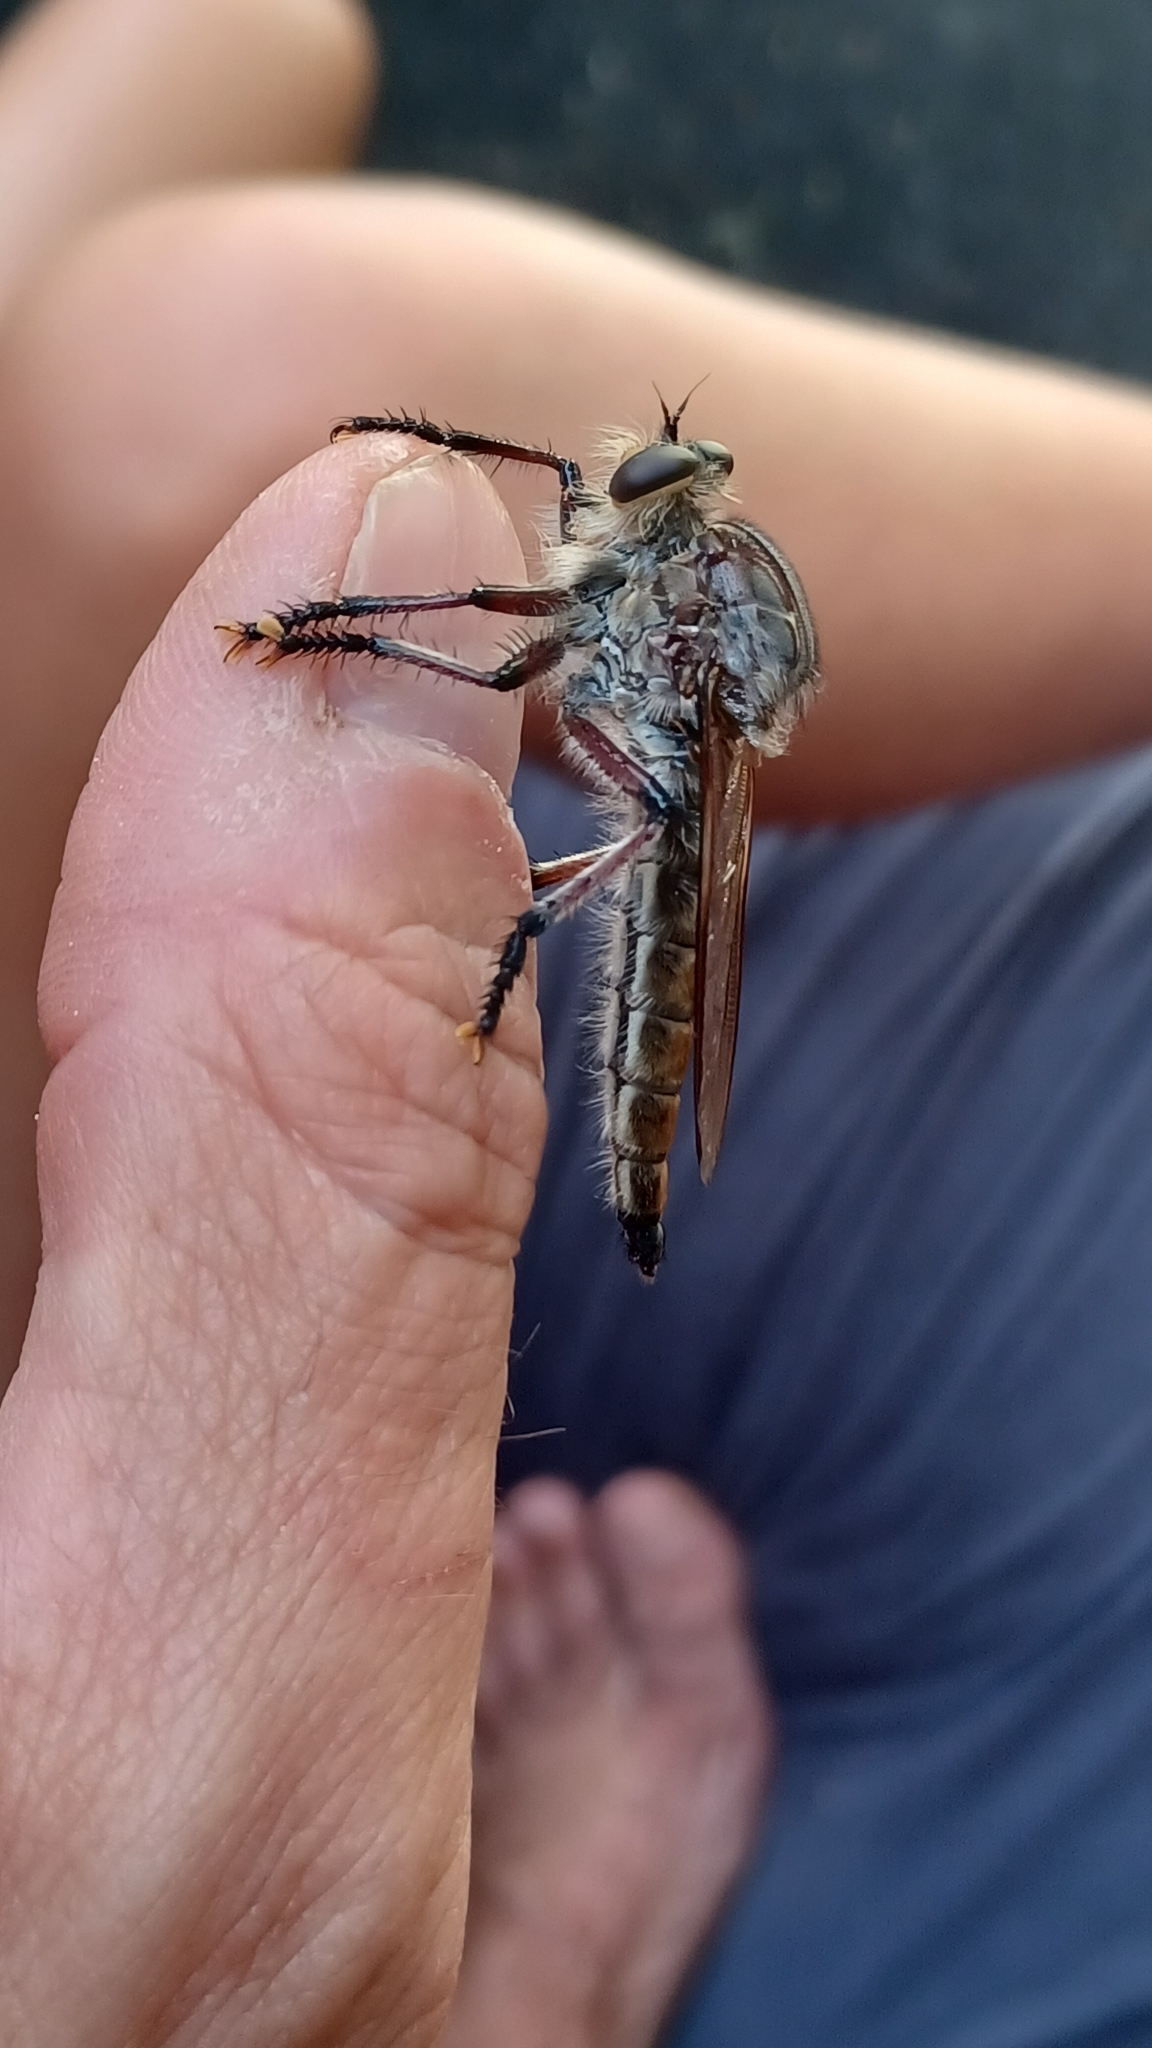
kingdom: Animalia
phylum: Arthropoda
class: Insecta
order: Diptera
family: Asilidae
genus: Neoaratus
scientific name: Neoaratus hercules
